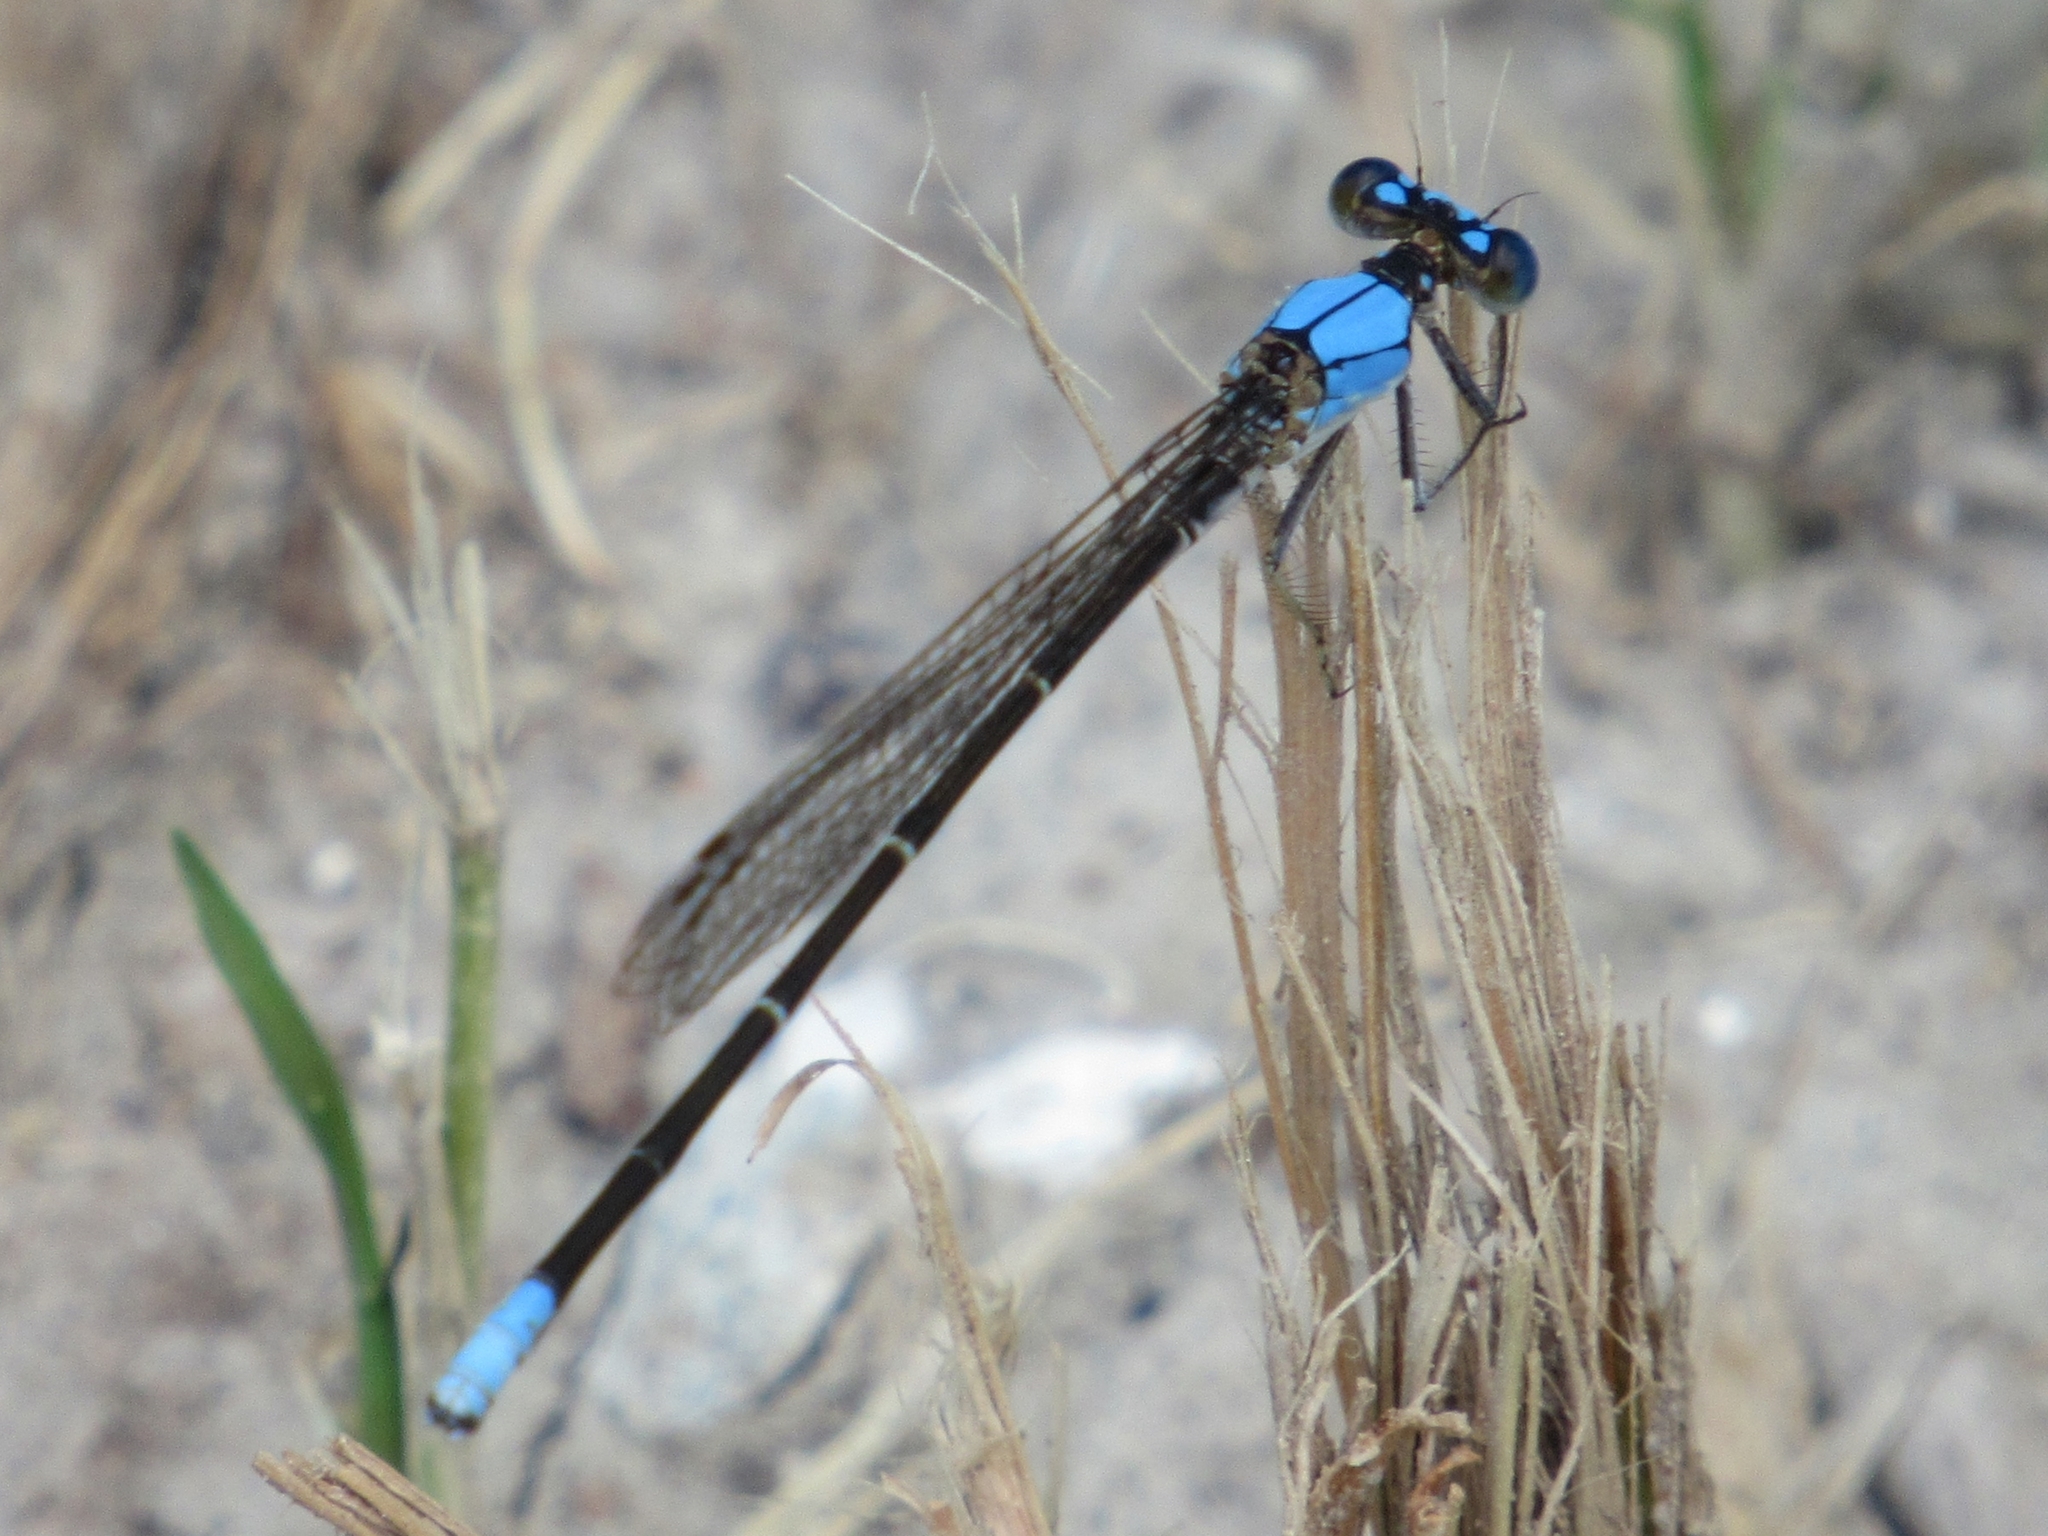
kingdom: Animalia
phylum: Arthropoda
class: Insecta
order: Odonata
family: Coenagrionidae
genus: Argia
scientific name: Argia apicalis
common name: Blue-fronted dancer
